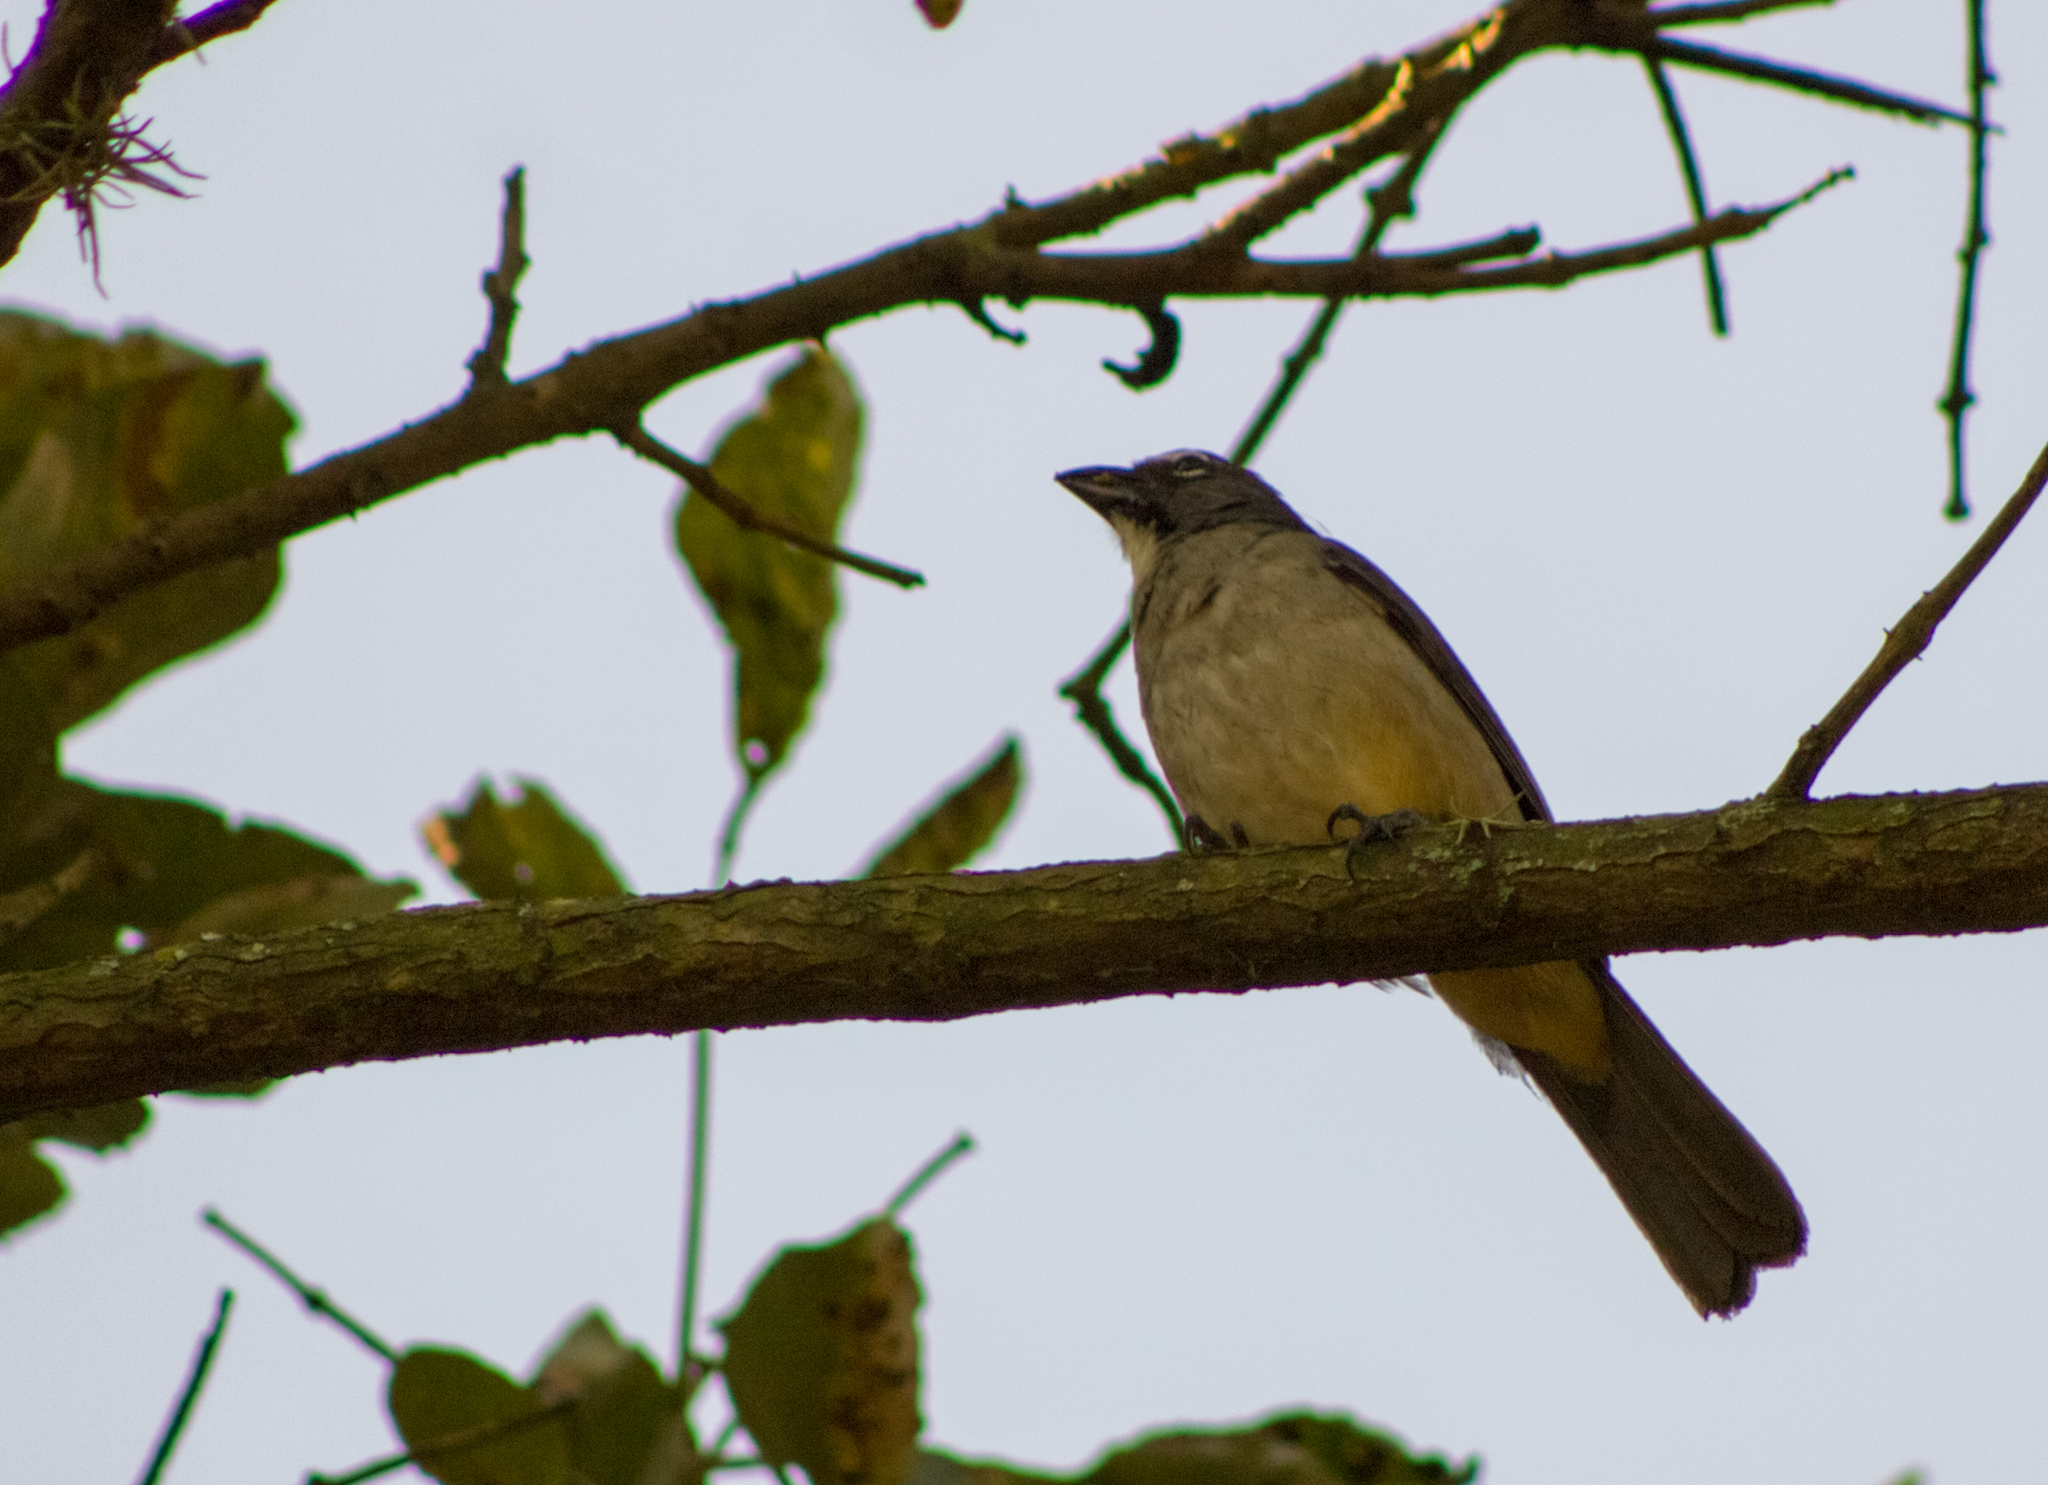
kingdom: Animalia
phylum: Chordata
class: Aves
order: Passeriformes
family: Thraupidae
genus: Saltator
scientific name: Saltator olivascens
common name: Caribbean grey saltator
